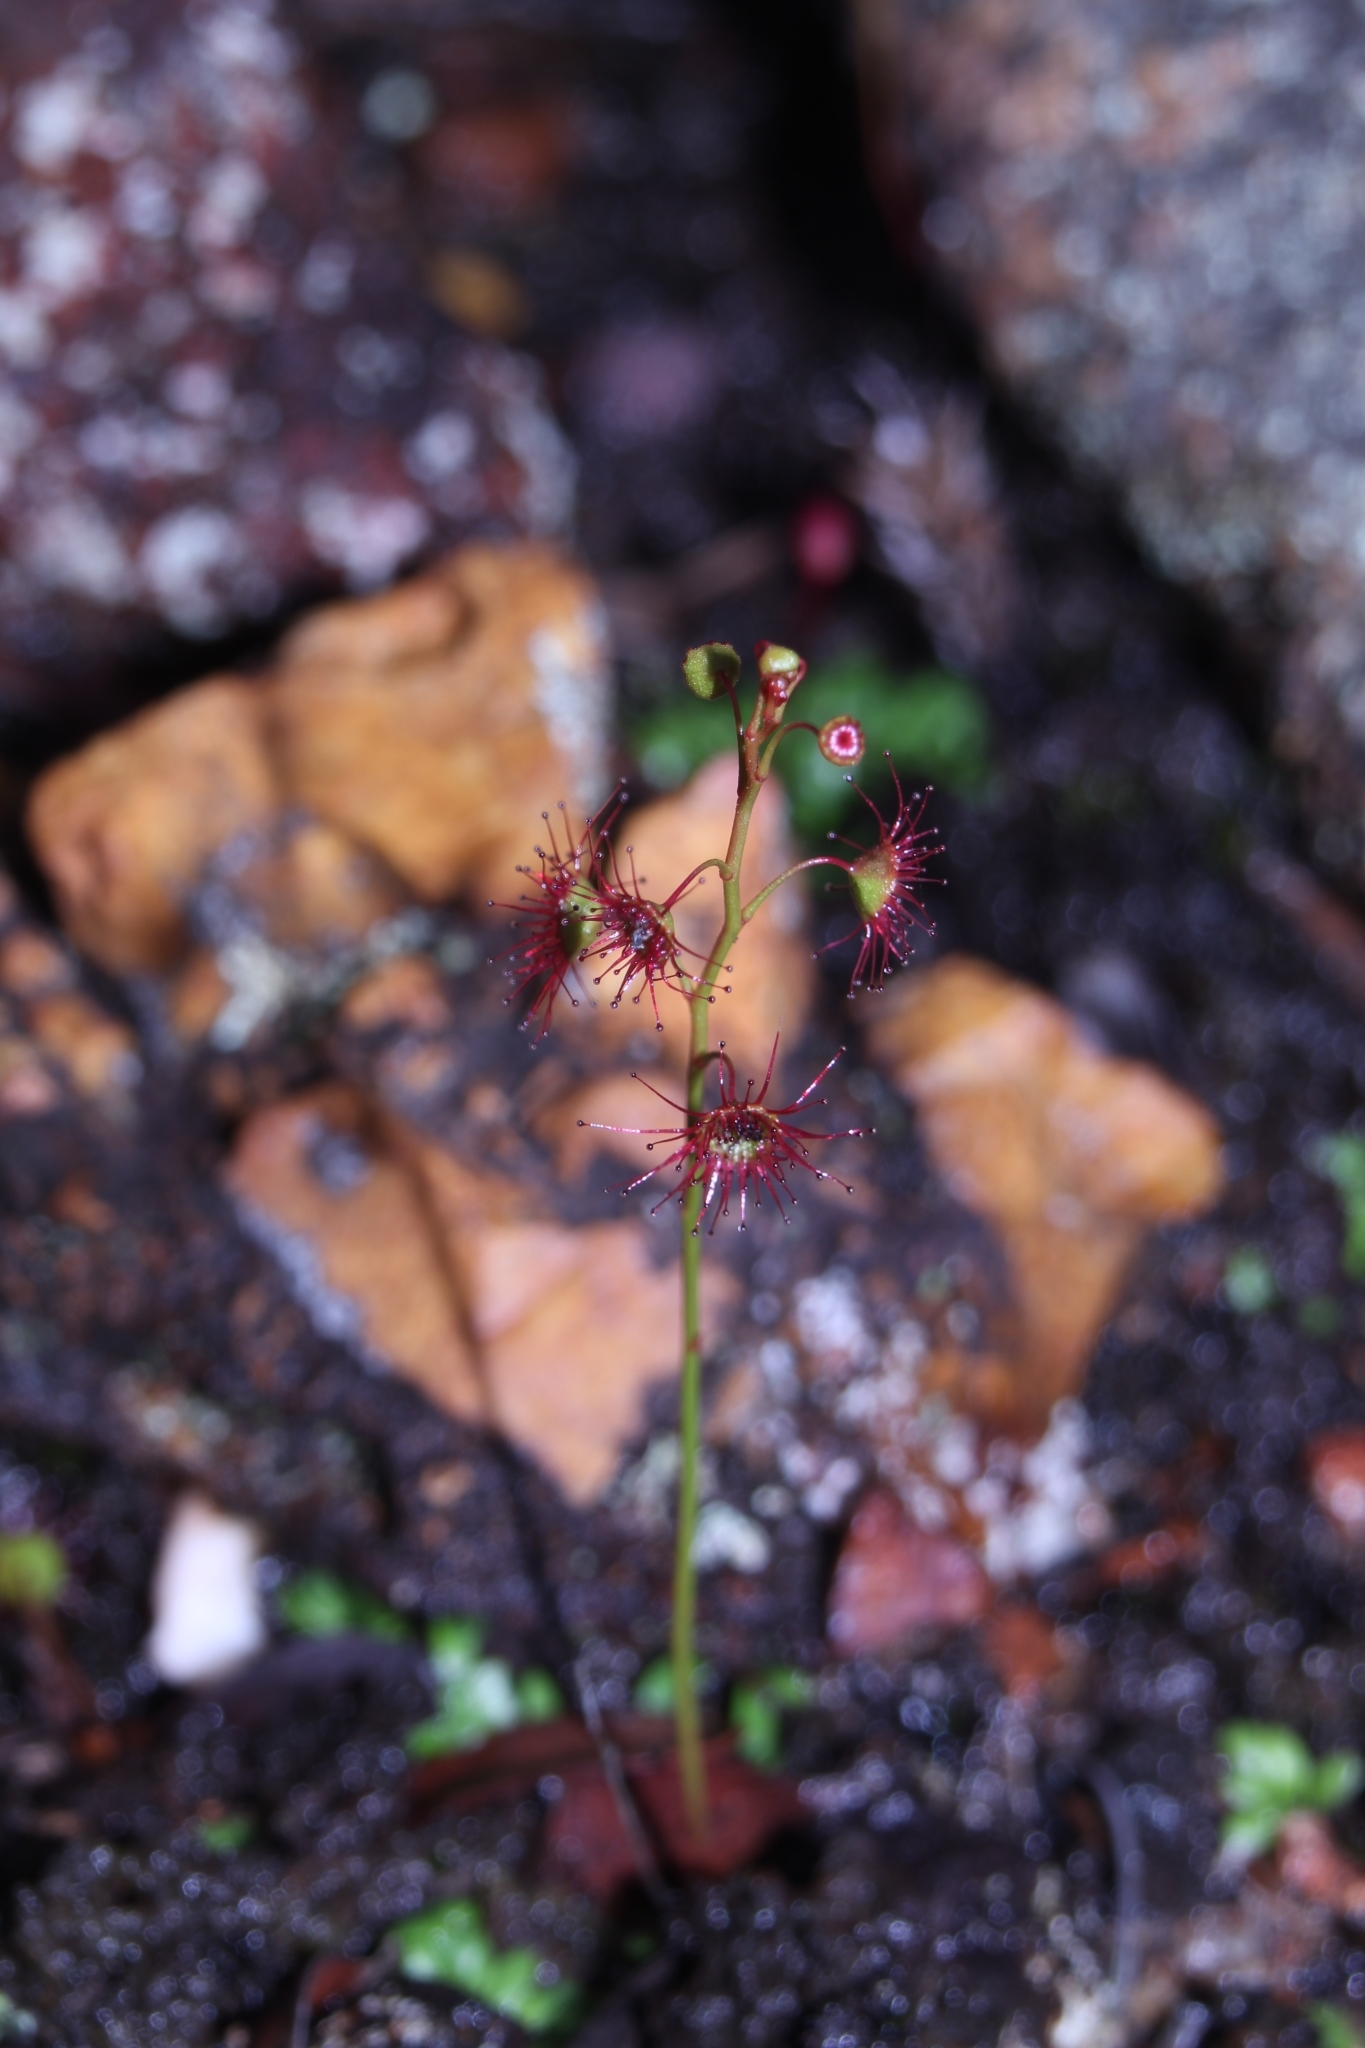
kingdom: Plantae
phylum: Tracheophyta
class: Magnoliopsida
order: Caryophyllales
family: Droseraceae
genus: Drosera
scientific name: Drosera microphylla
